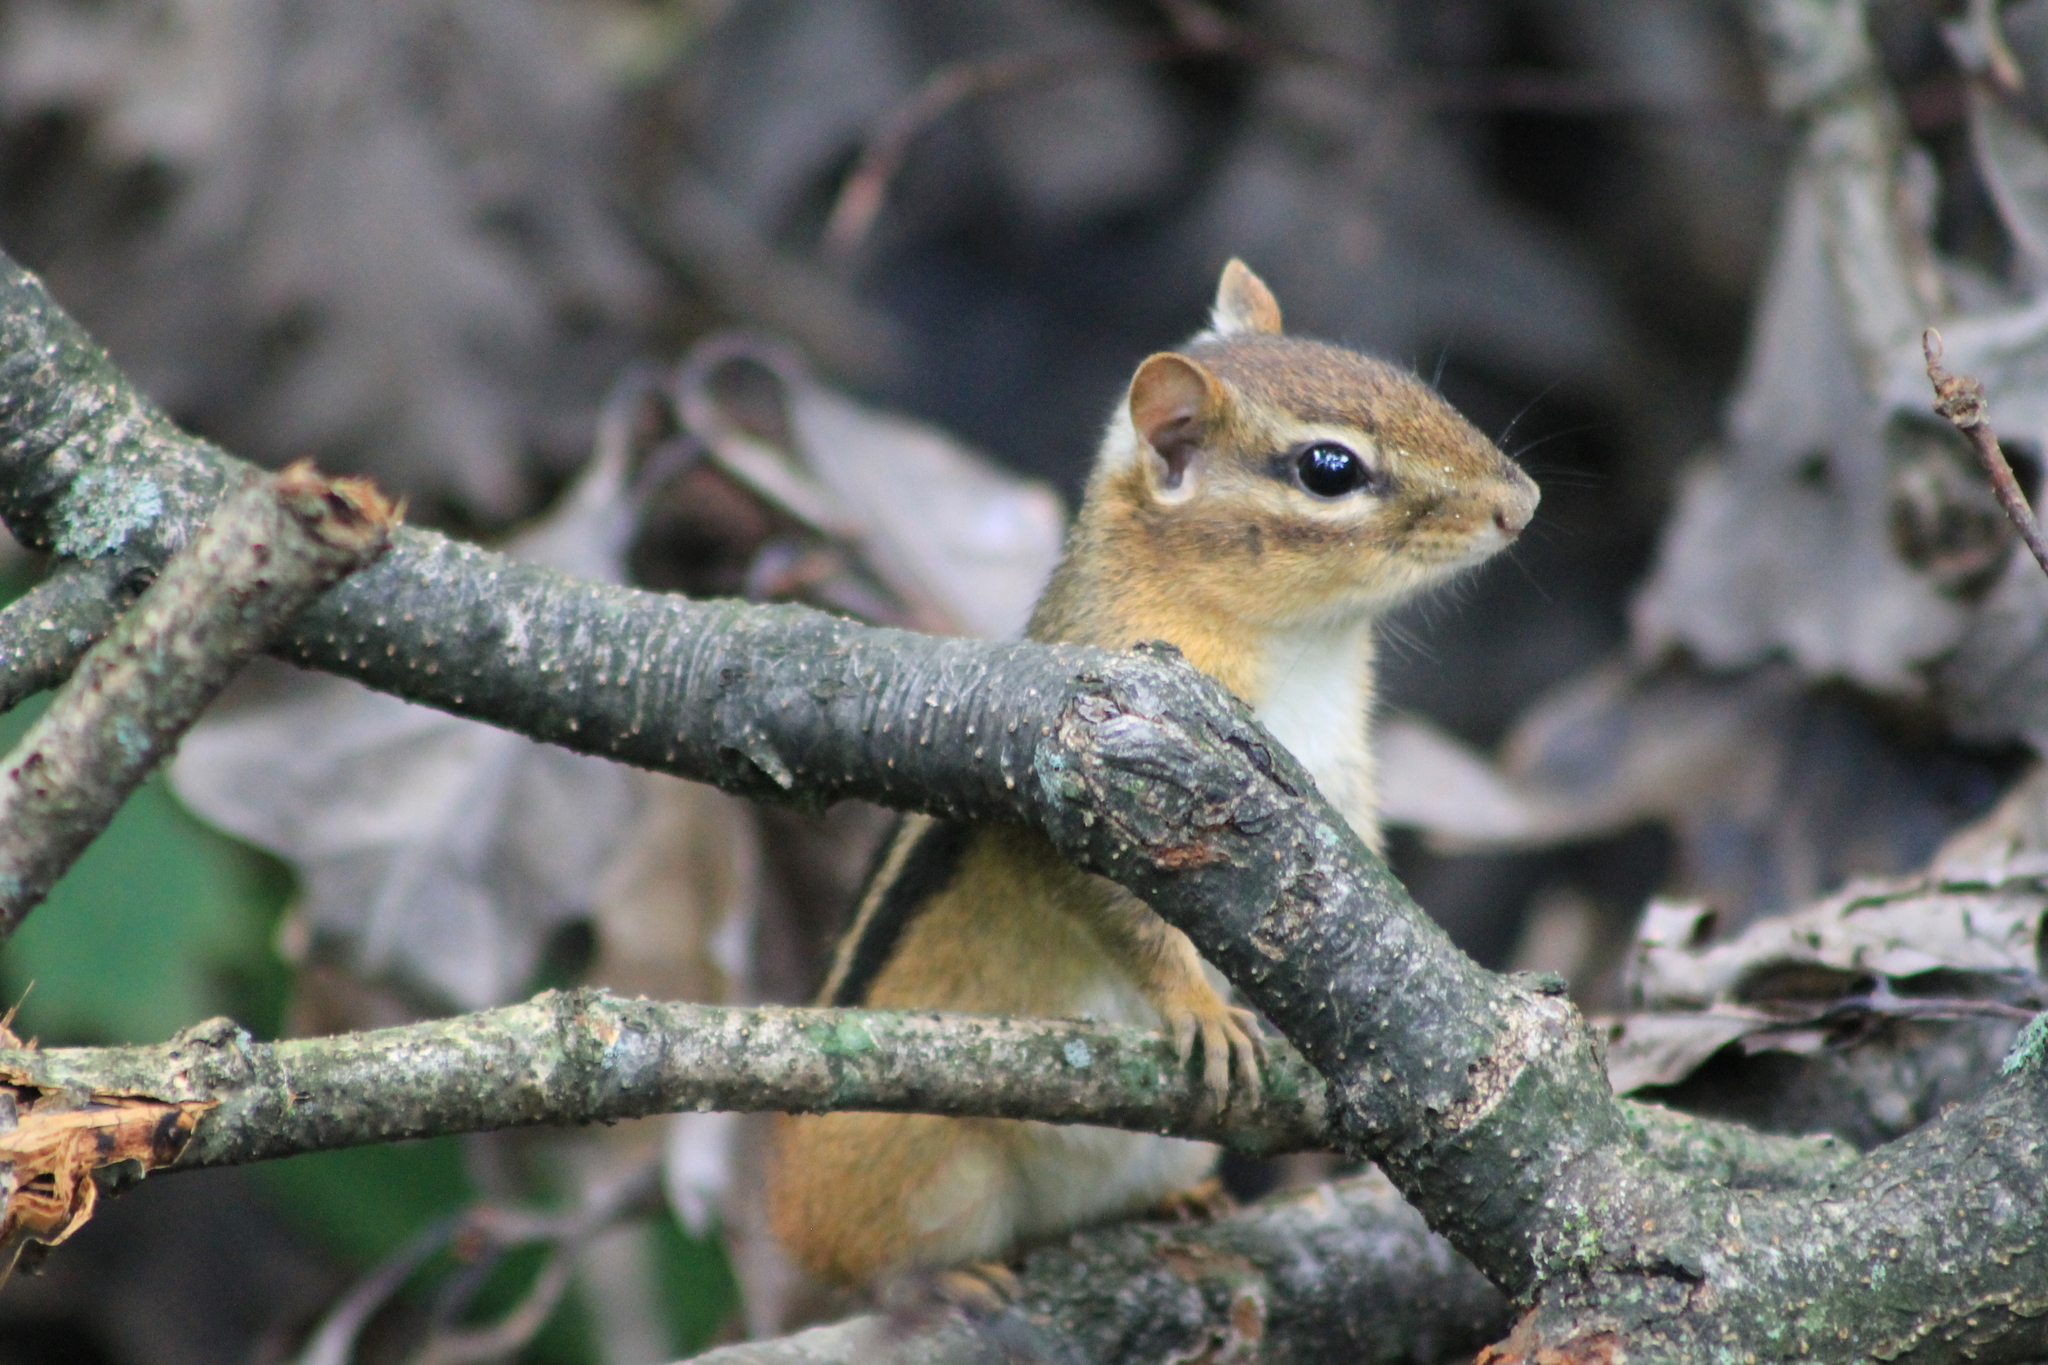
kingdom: Animalia
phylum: Chordata
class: Mammalia
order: Rodentia
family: Sciuridae
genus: Tamias
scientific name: Tamias striatus
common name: Eastern chipmunk
